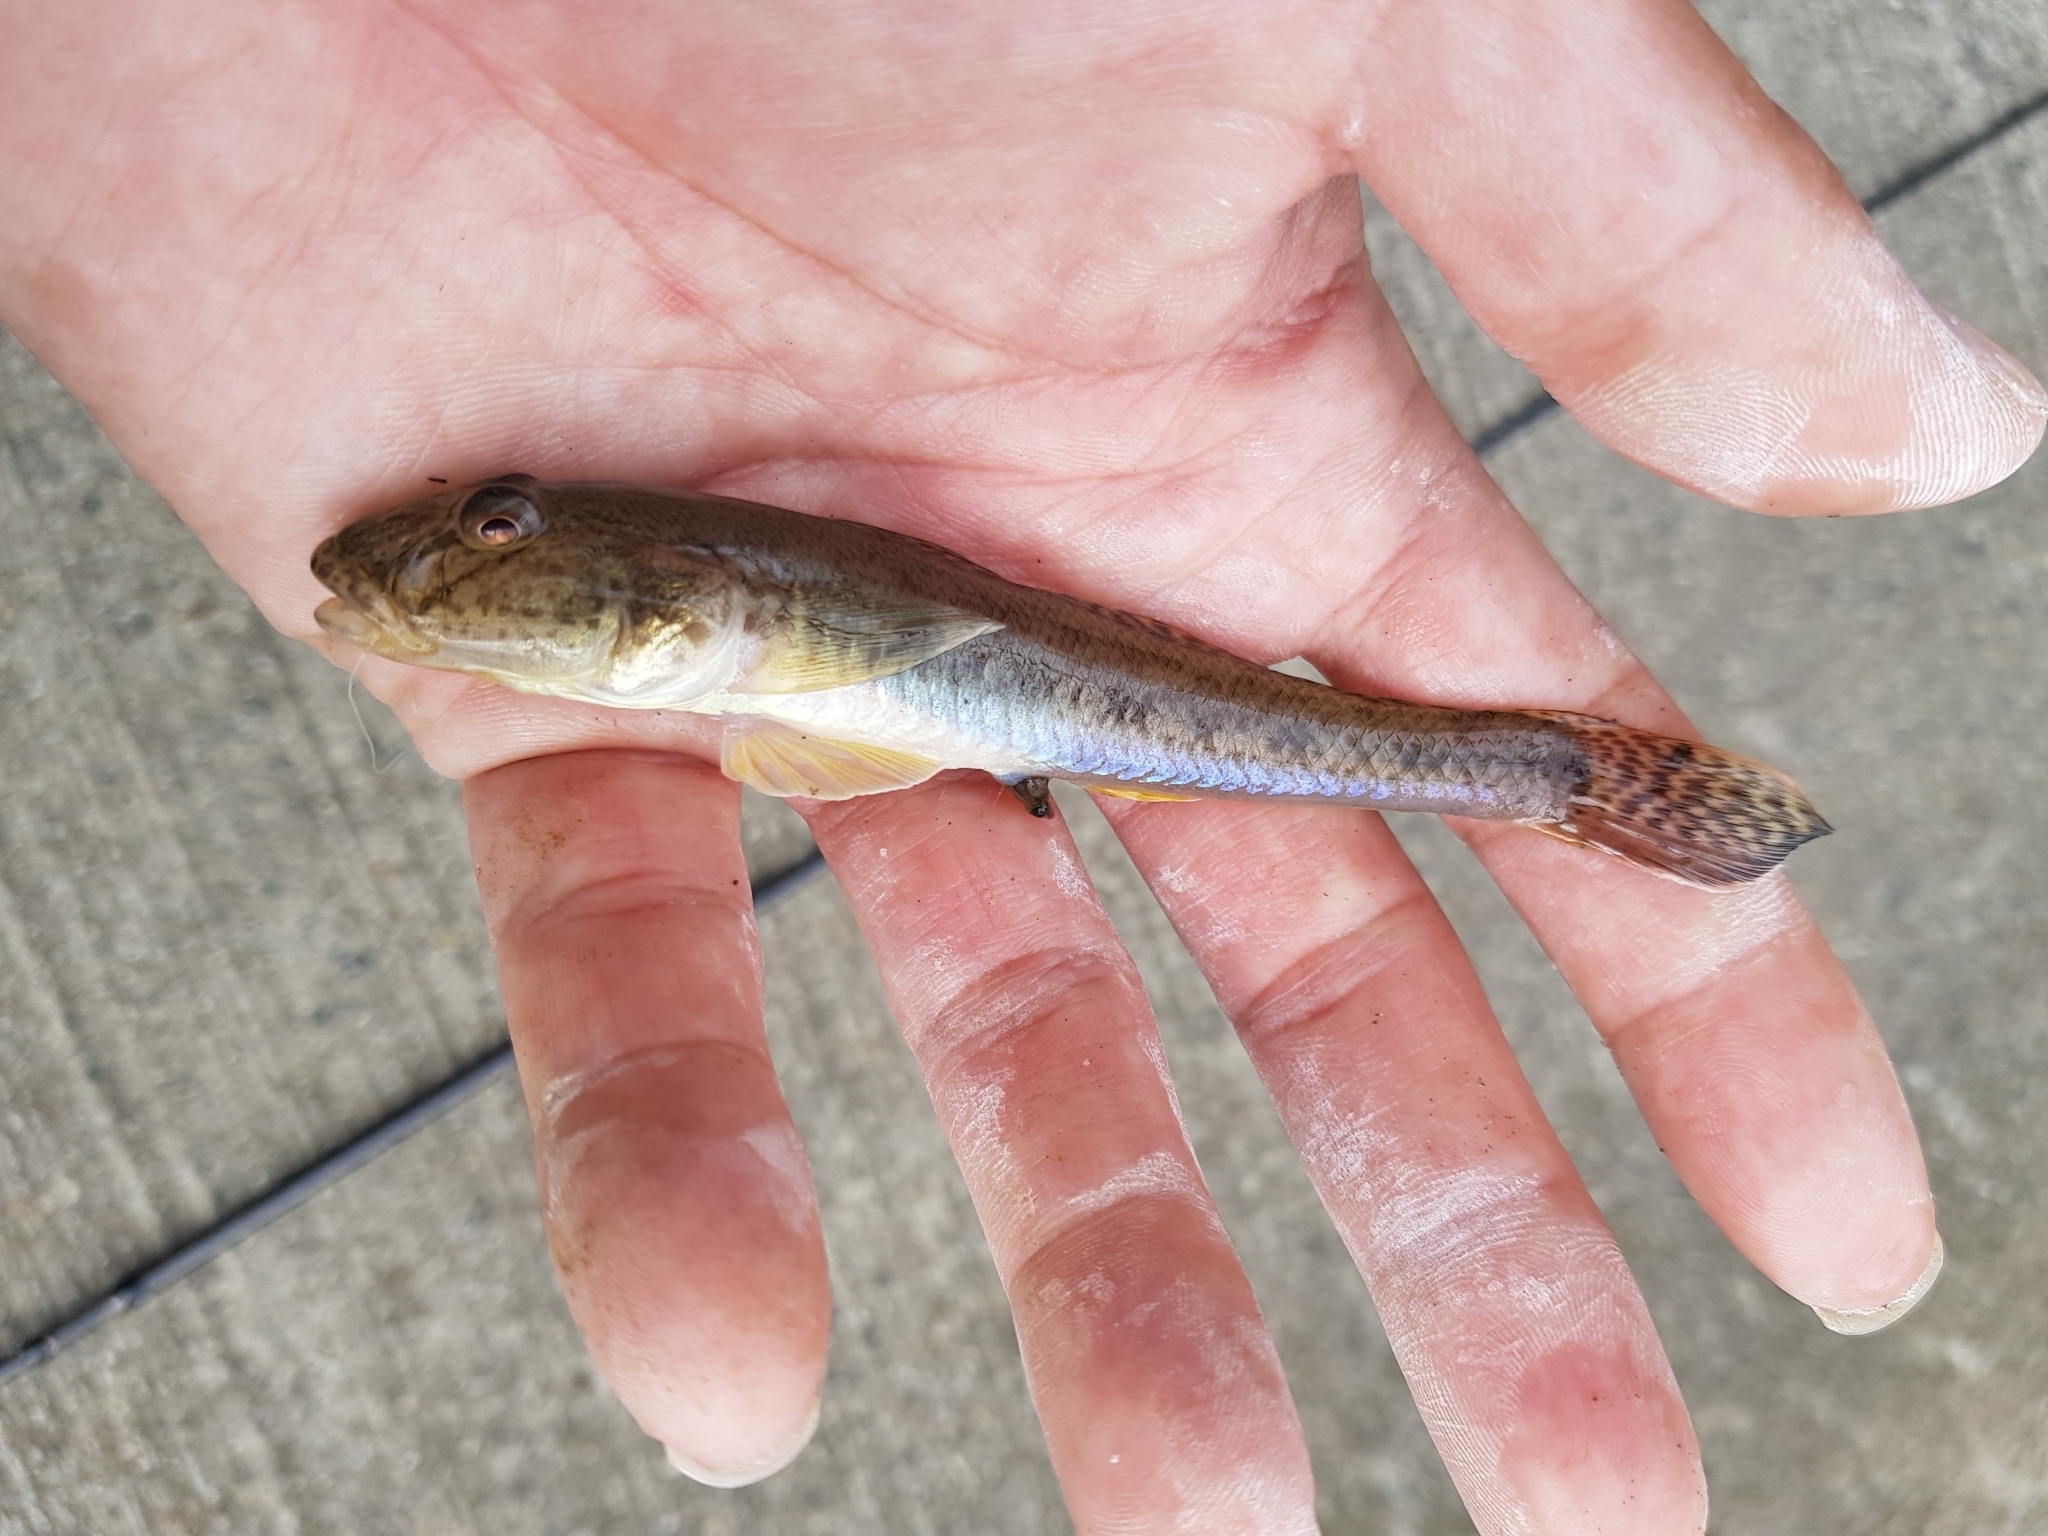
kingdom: Animalia
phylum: Chordata
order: Perciformes
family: Gobiidae
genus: Acanthogobius
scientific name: Acanthogobius flavimanus
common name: Yellowfin goby
